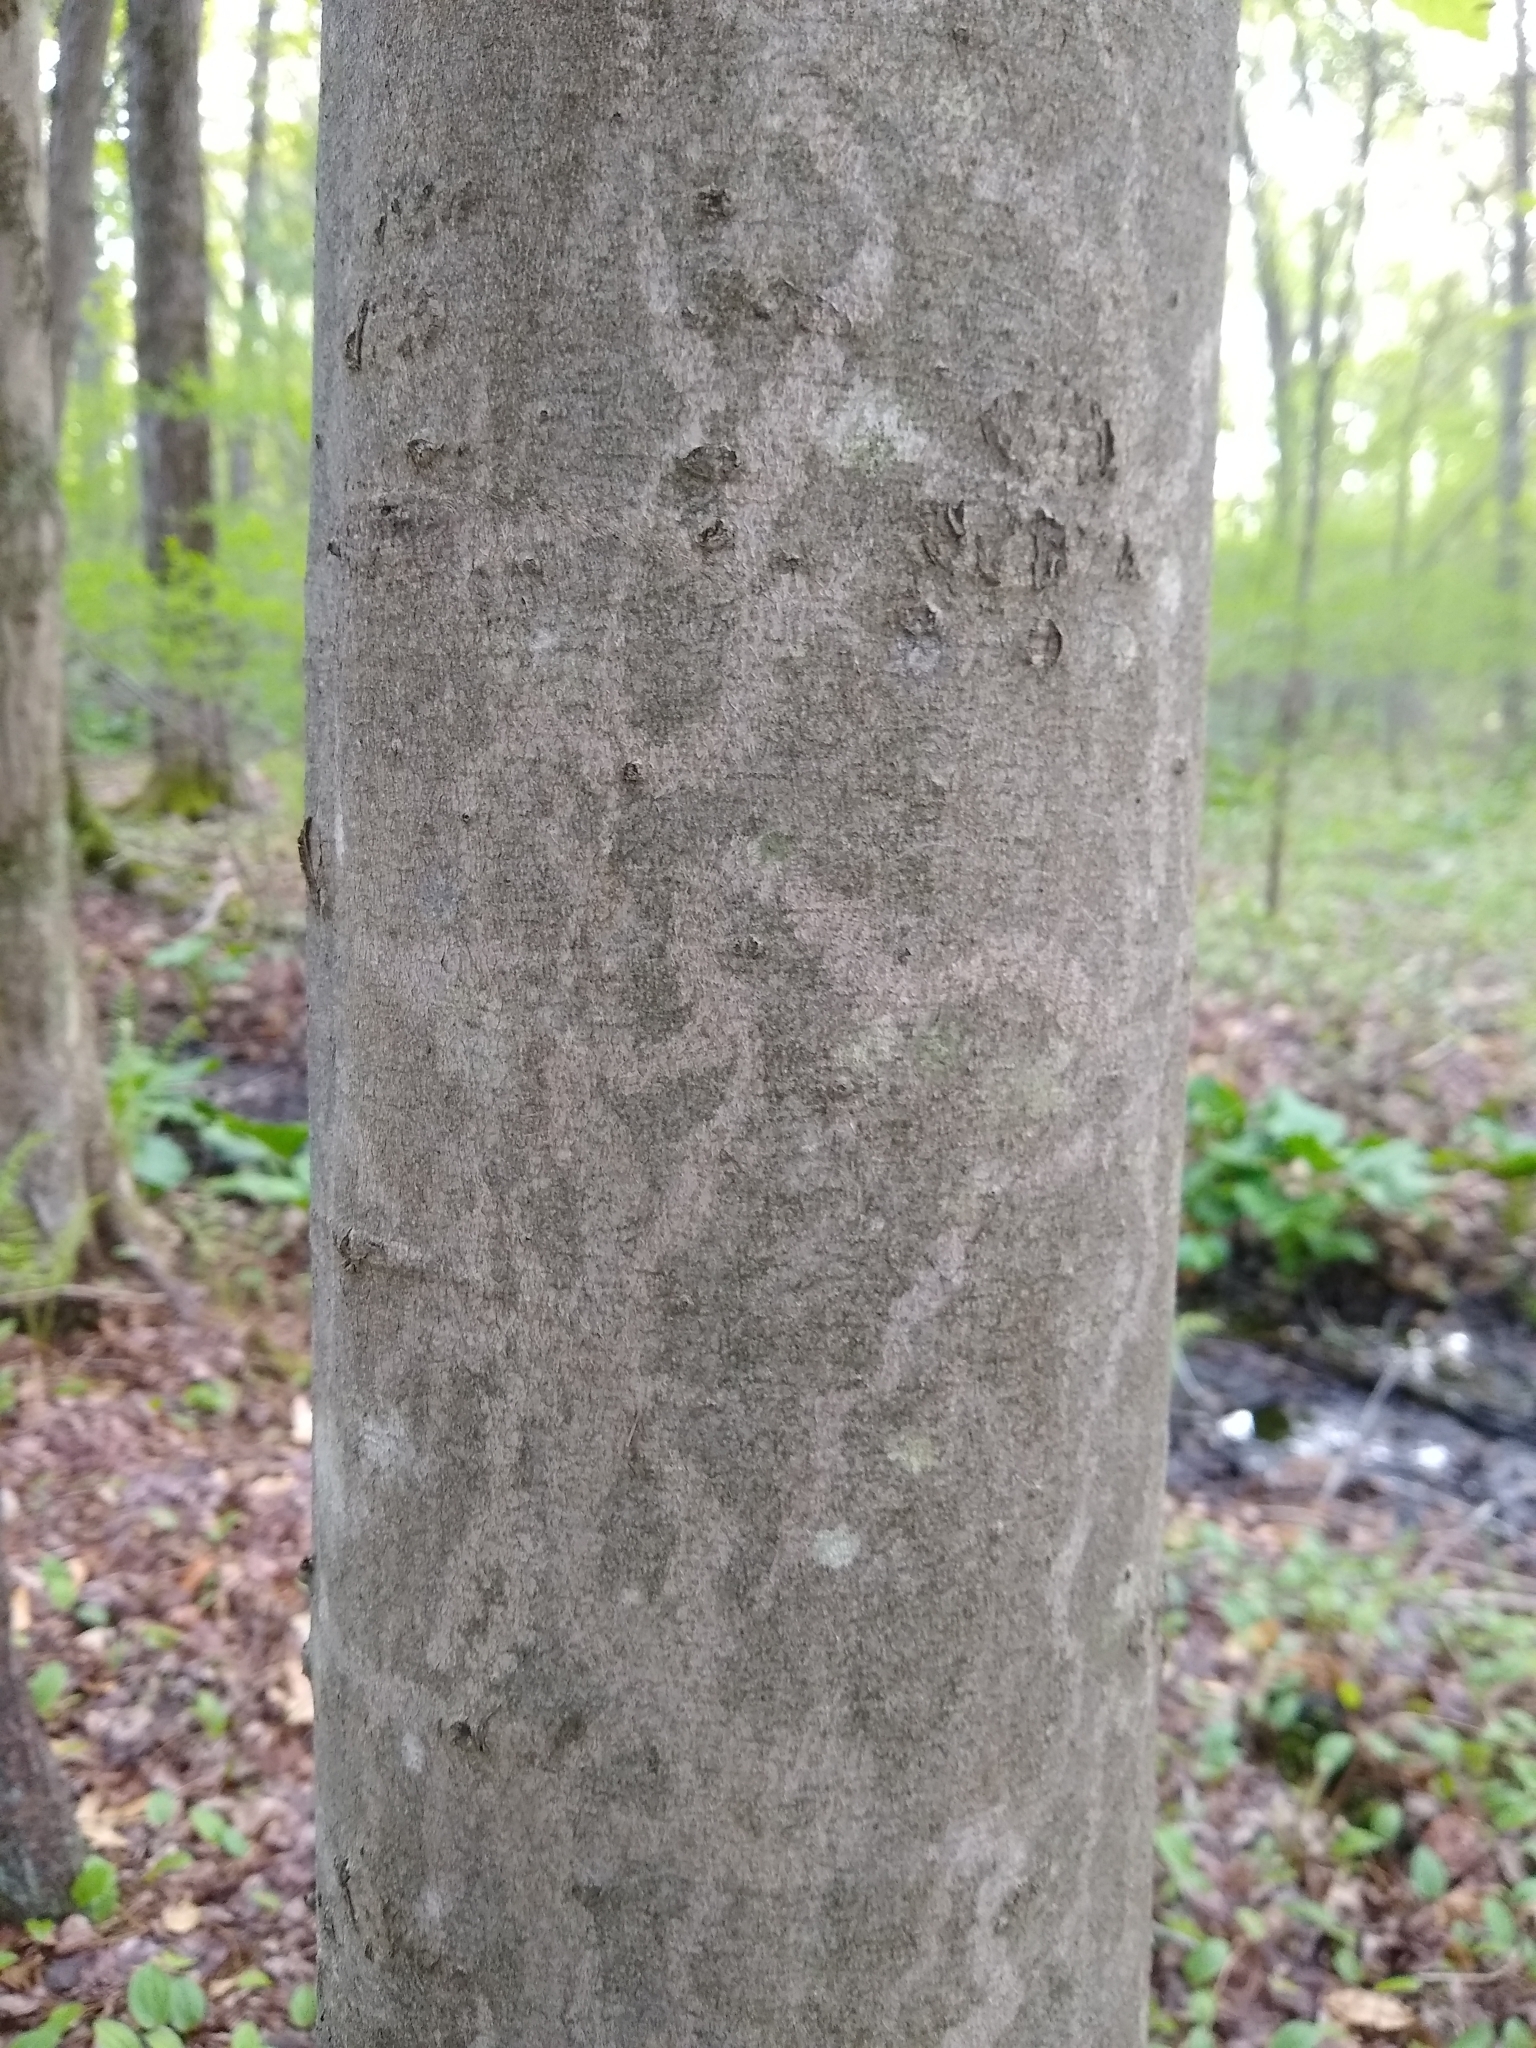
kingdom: Plantae
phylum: Tracheophyta
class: Magnoliopsida
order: Fagales
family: Fagaceae
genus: Fagus
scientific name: Fagus grandifolia
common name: American beech
